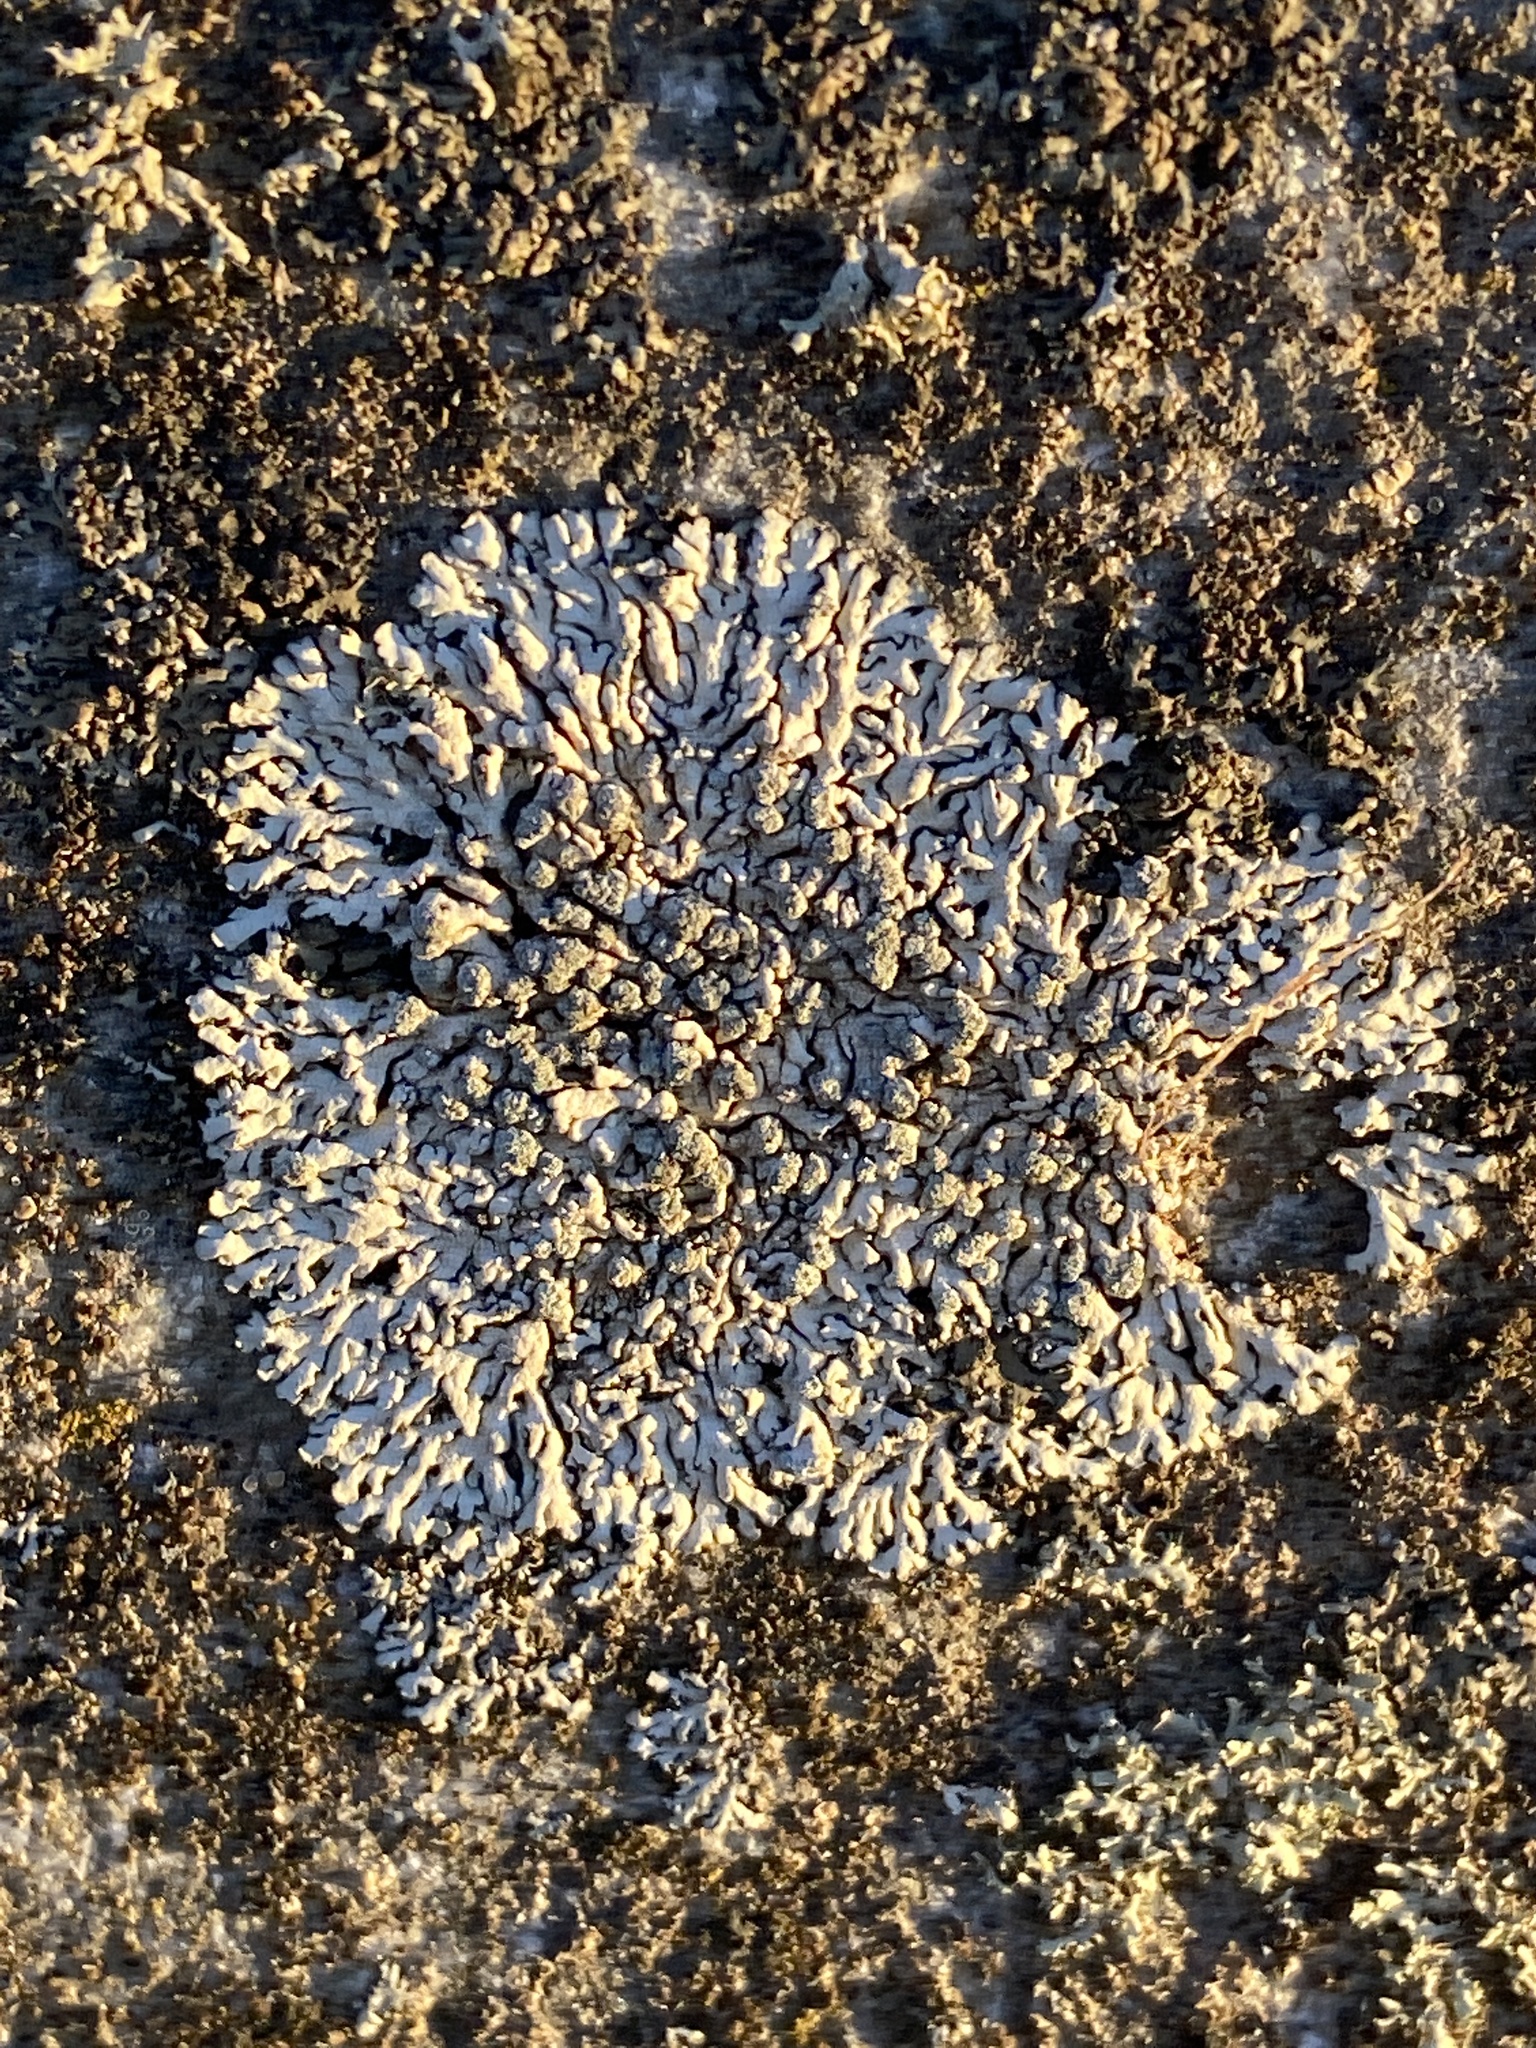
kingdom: Fungi
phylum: Ascomycota
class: Lecanoromycetes
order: Caliciales
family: Physciaceae
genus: Physcia
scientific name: Physcia caesia
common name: Blue-gray rosette lichen
